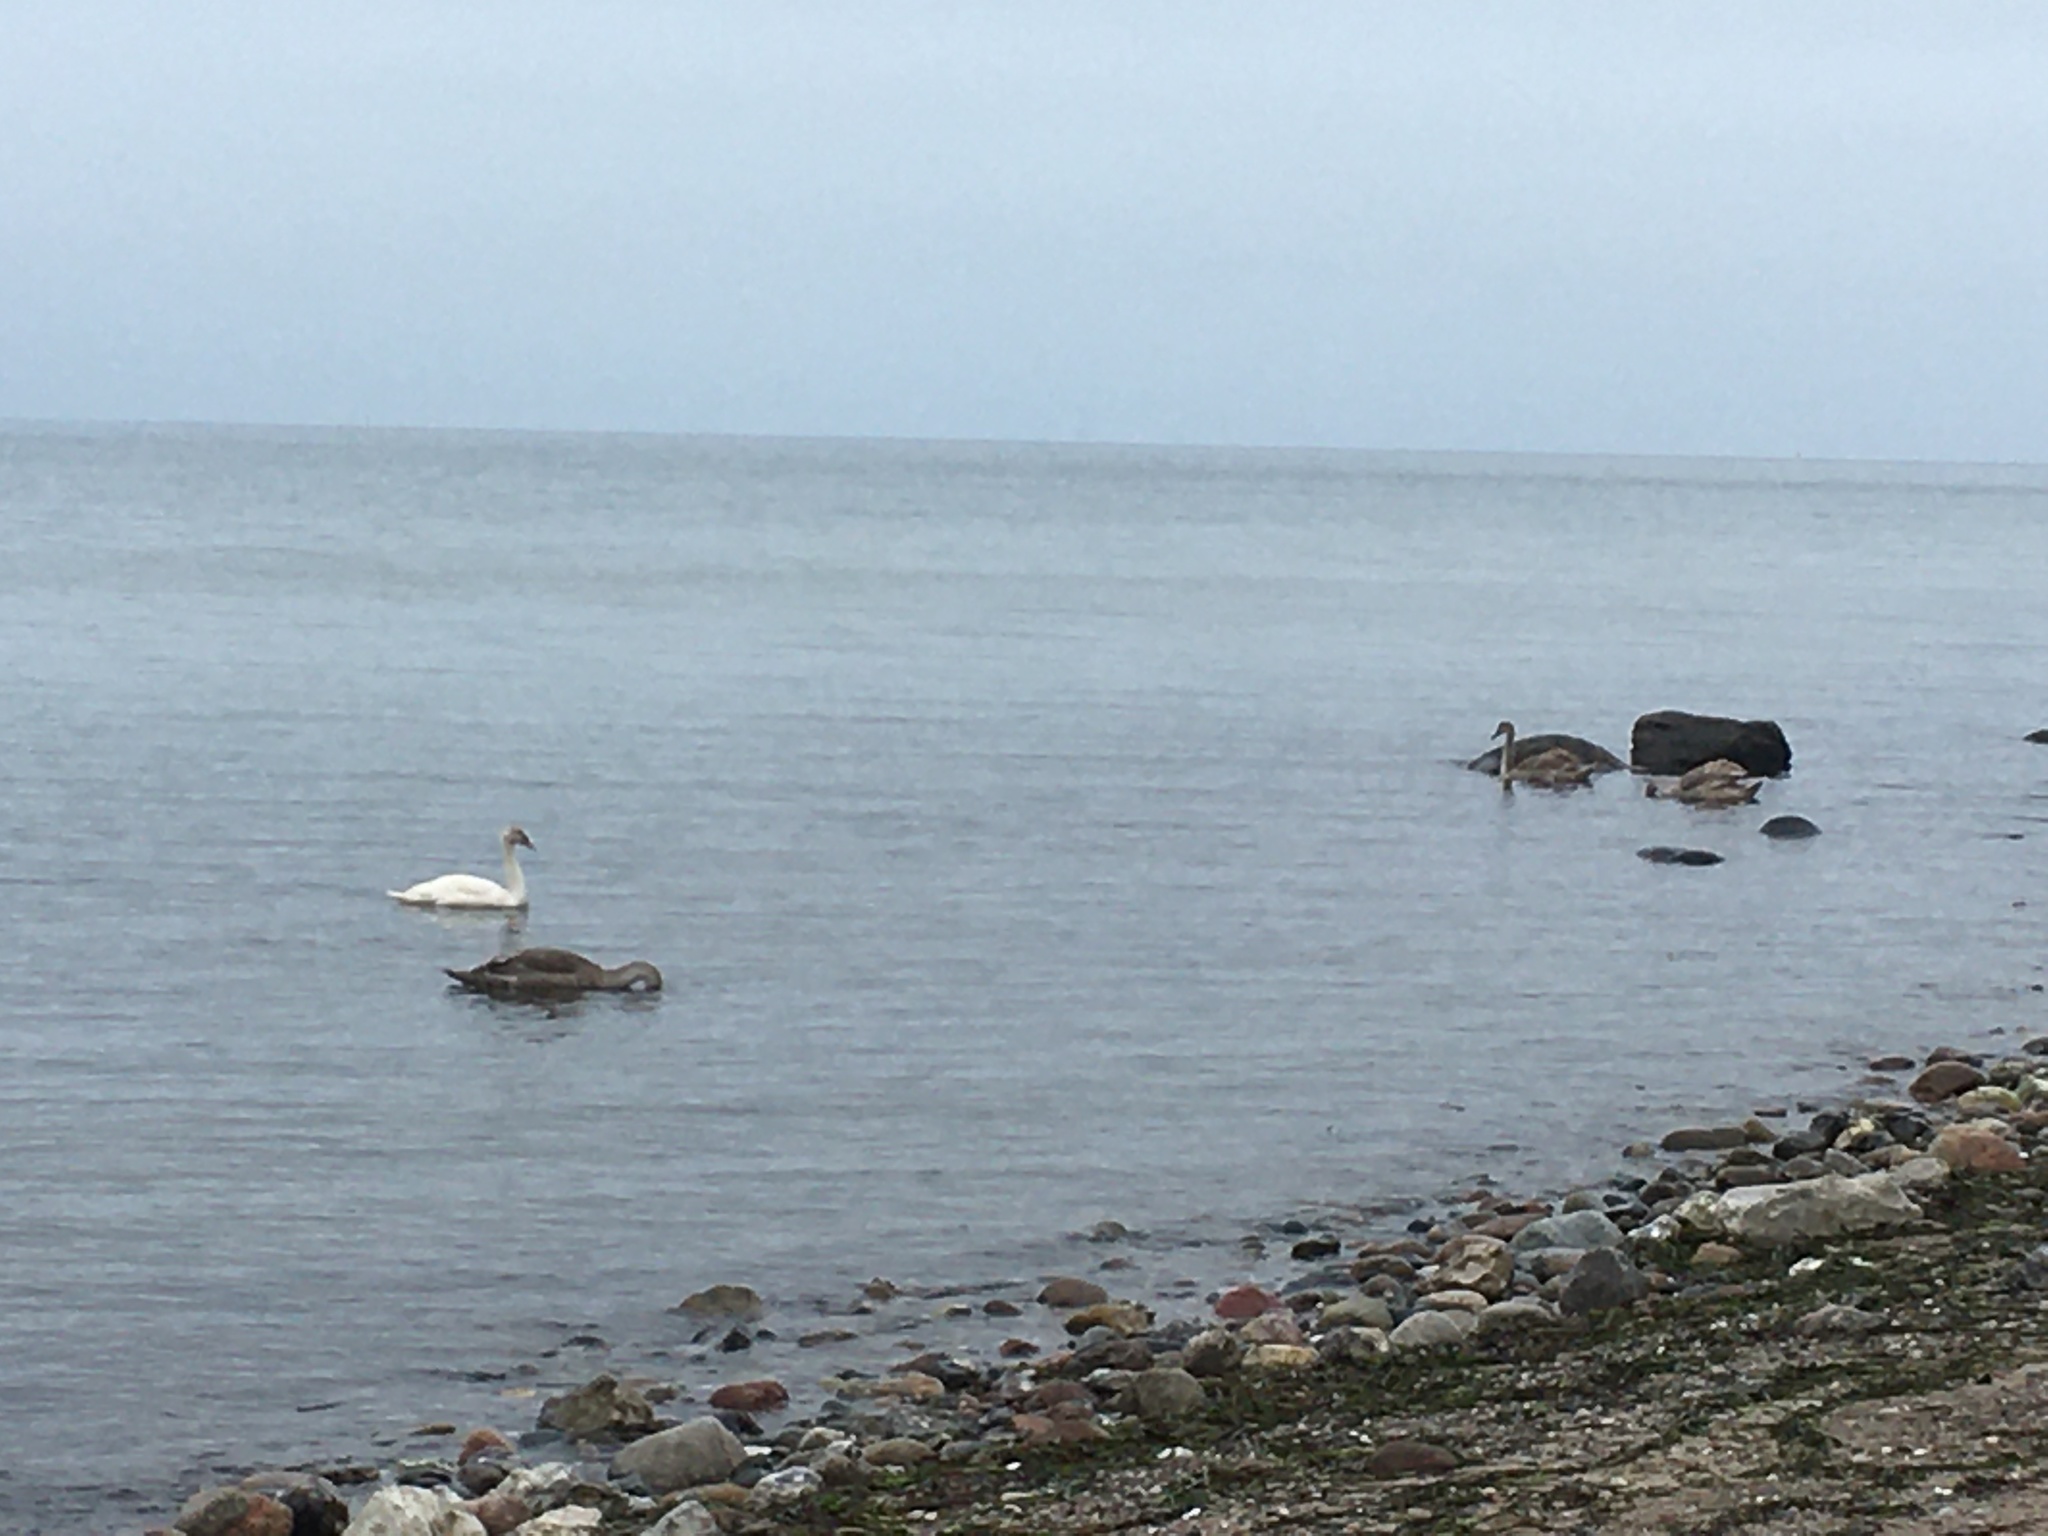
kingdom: Animalia
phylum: Chordata
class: Aves
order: Anseriformes
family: Anatidae
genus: Cygnus
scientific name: Cygnus olor
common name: Mute swan
